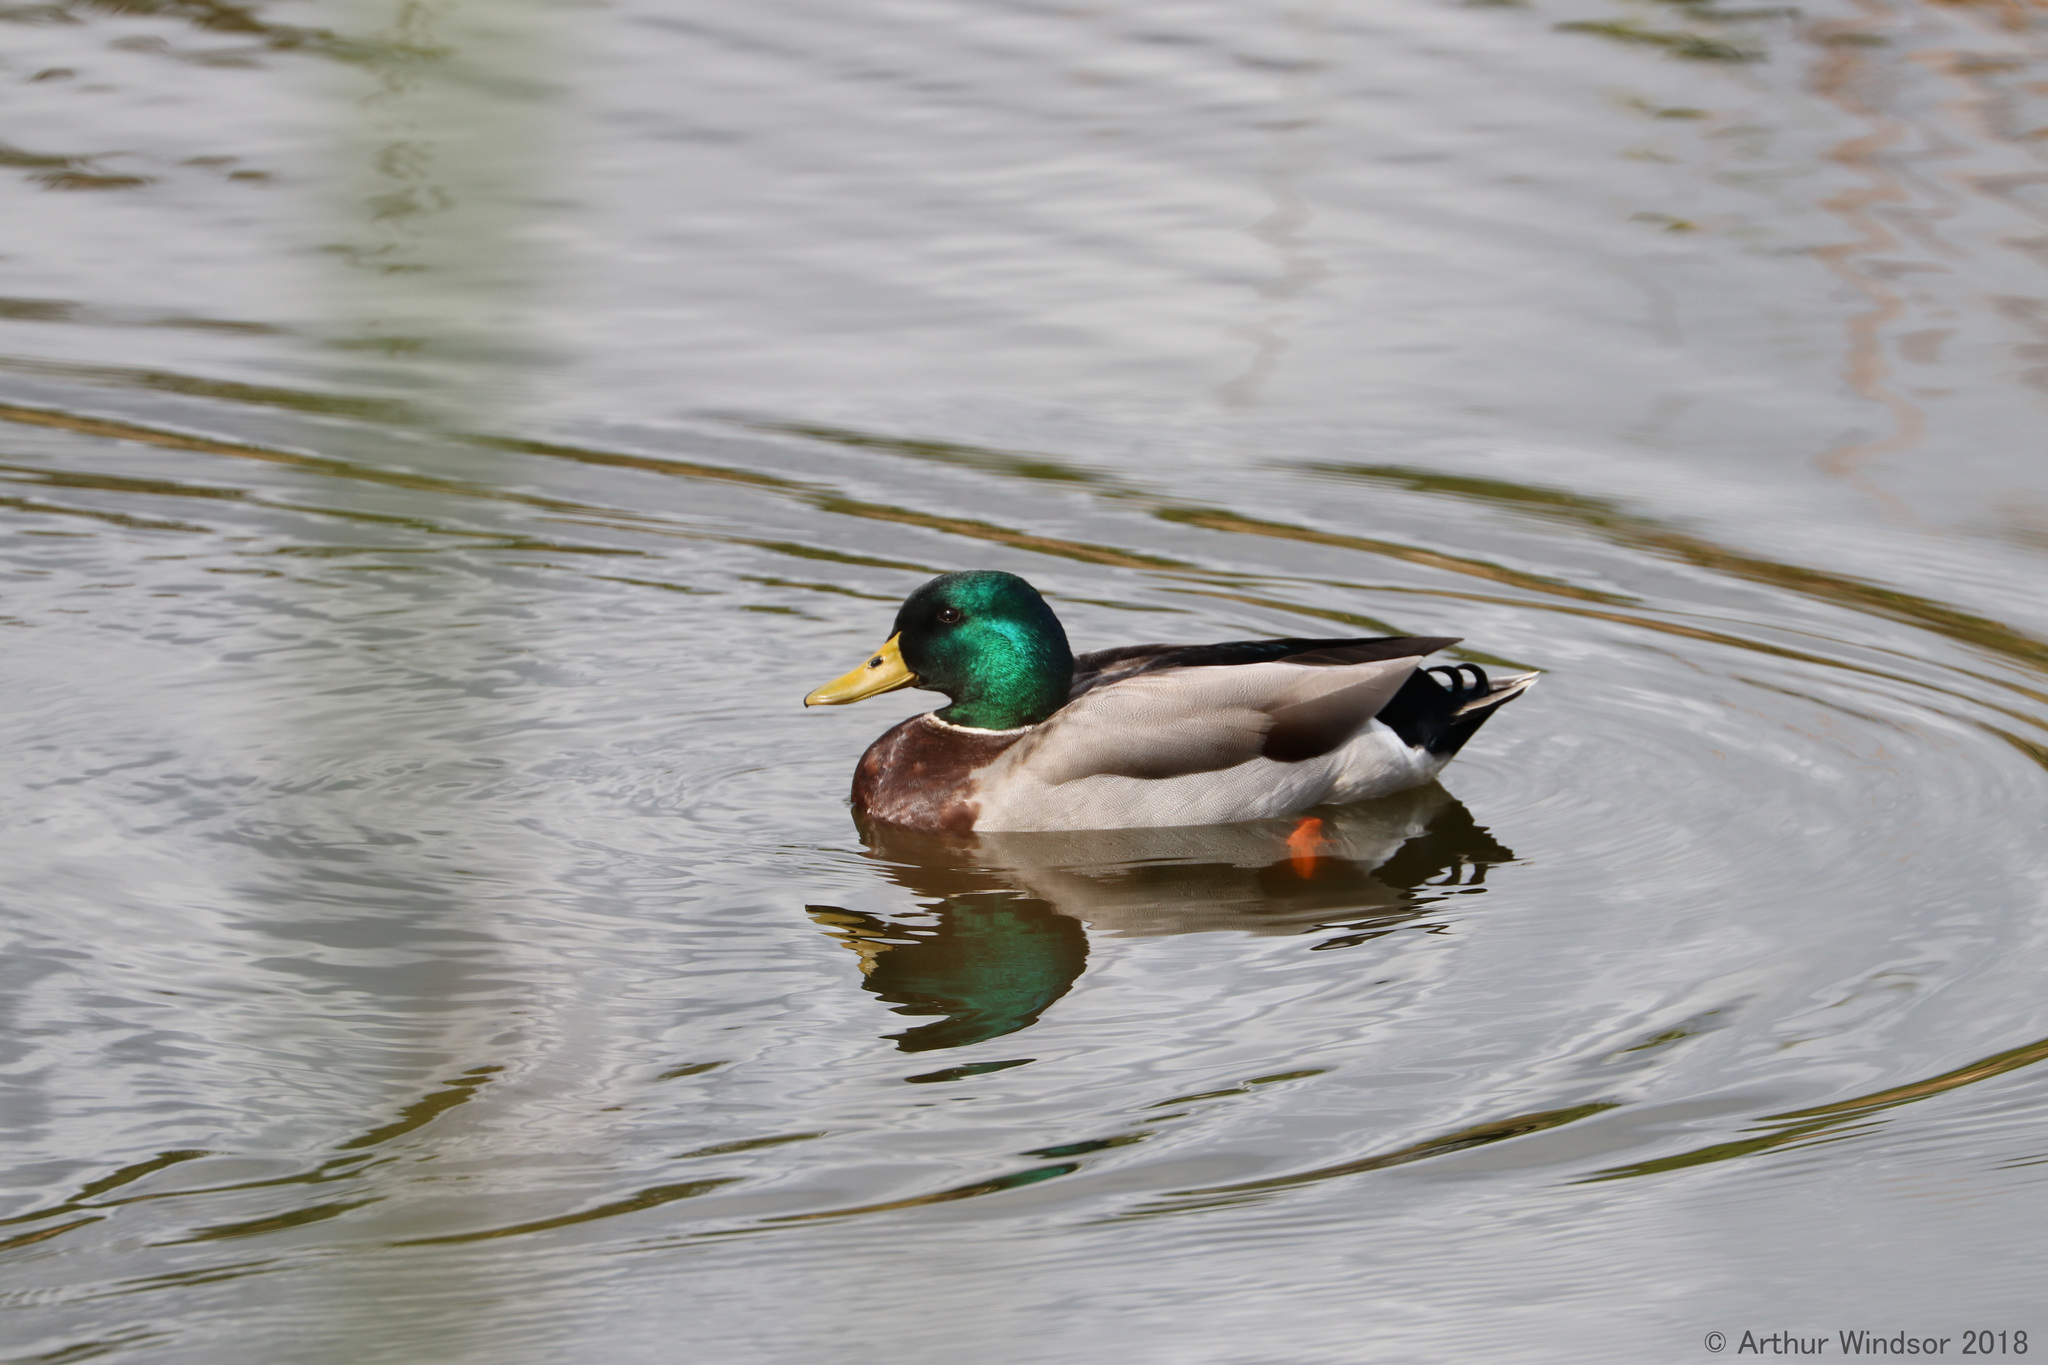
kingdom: Animalia
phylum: Chordata
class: Aves
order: Anseriformes
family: Anatidae
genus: Anas
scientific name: Anas platyrhynchos
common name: Mallard
